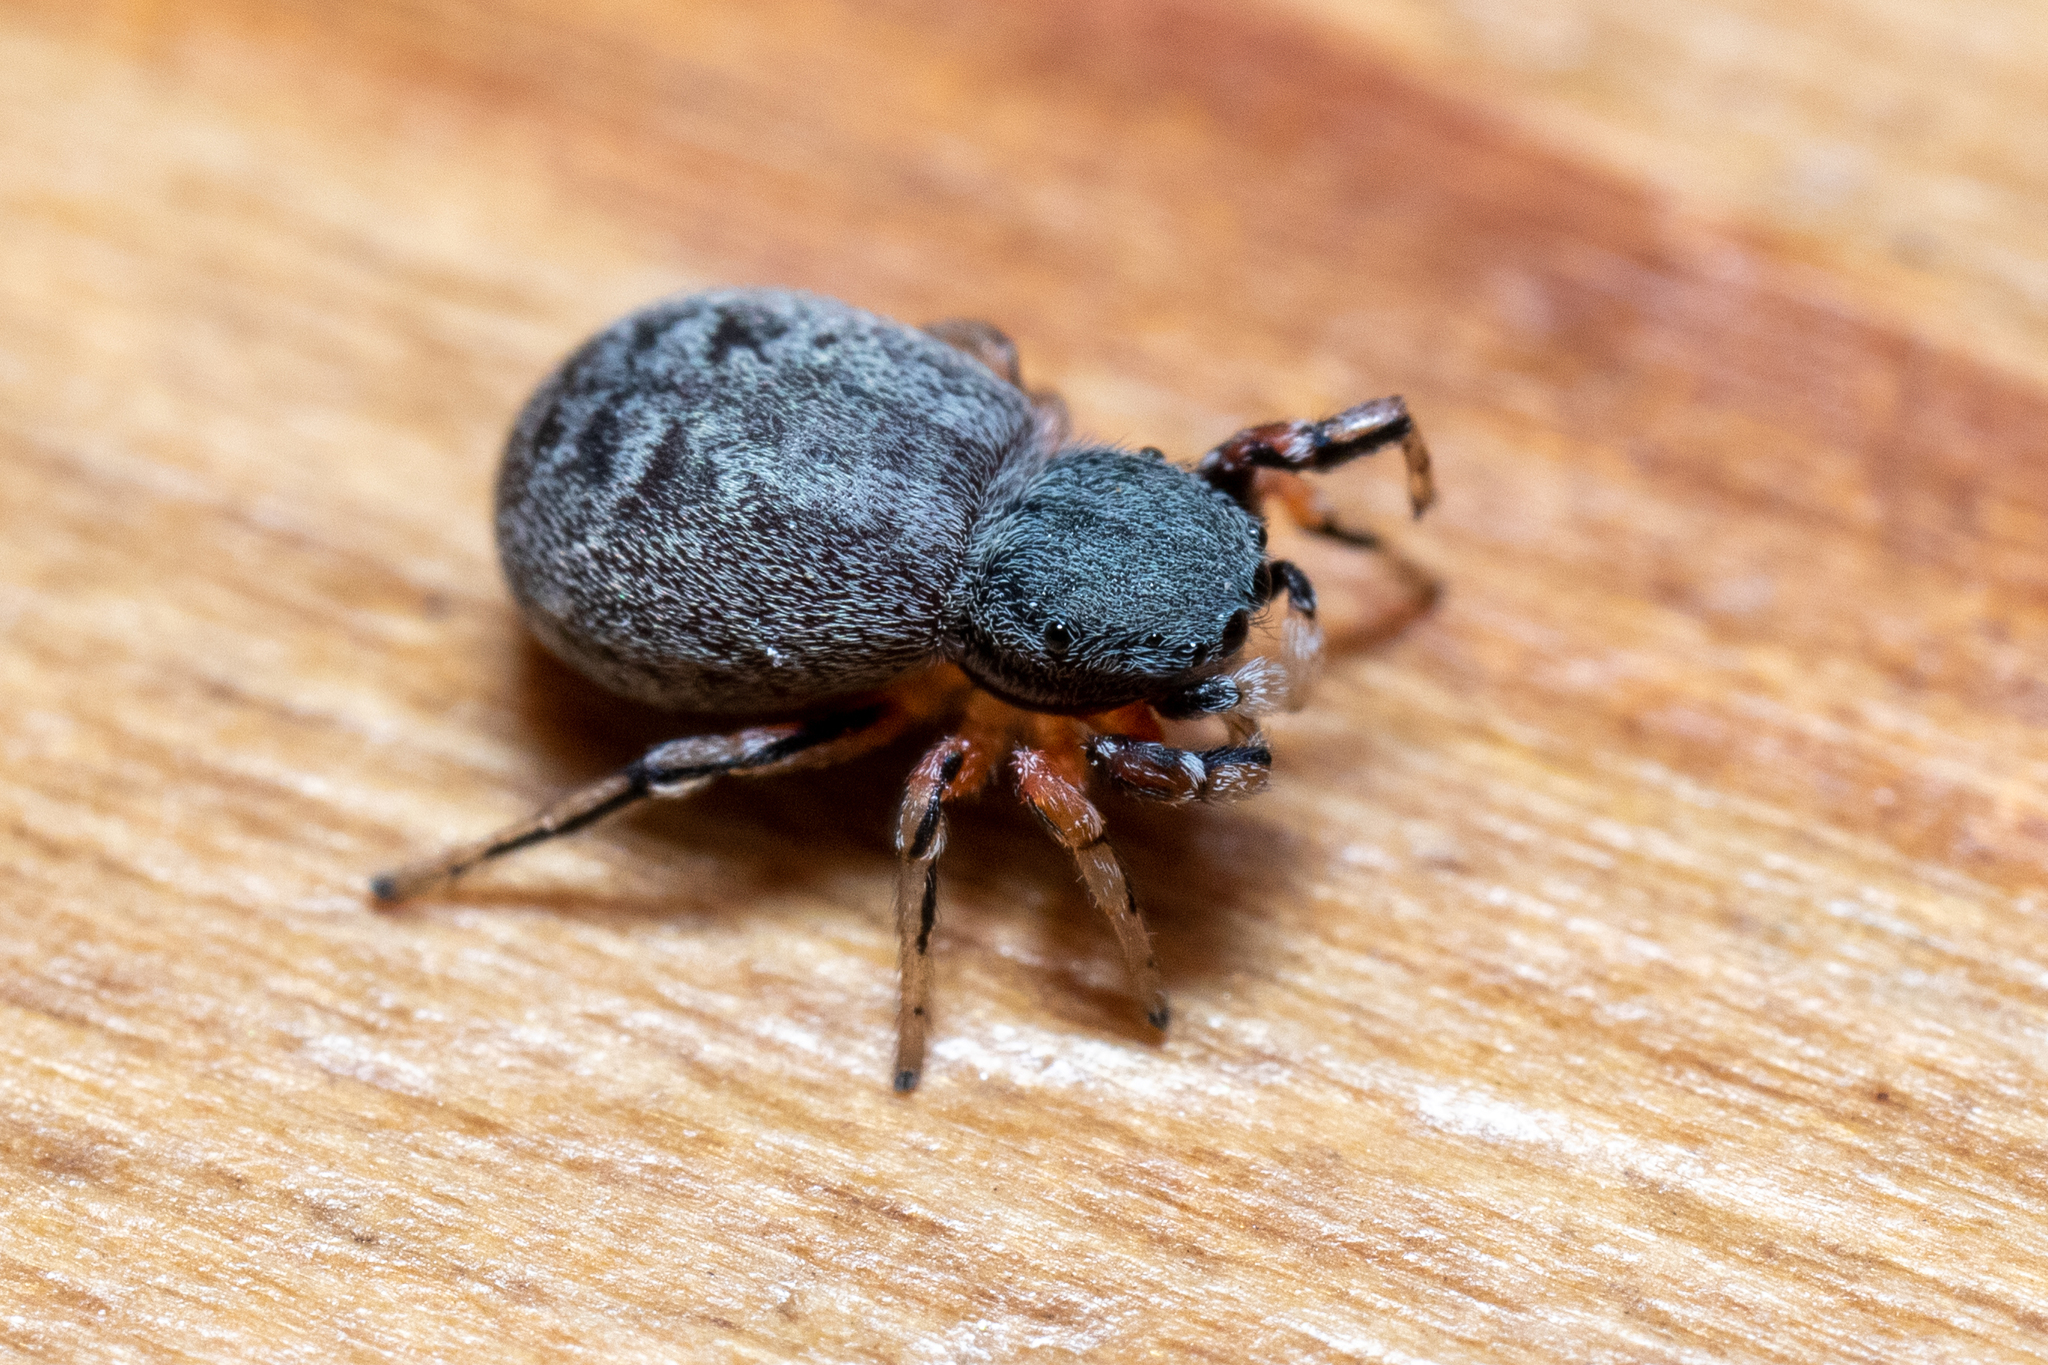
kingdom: Animalia
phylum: Arthropoda
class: Arachnida
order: Araneae
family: Salticidae
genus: Ballus
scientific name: Ballus rufipes
